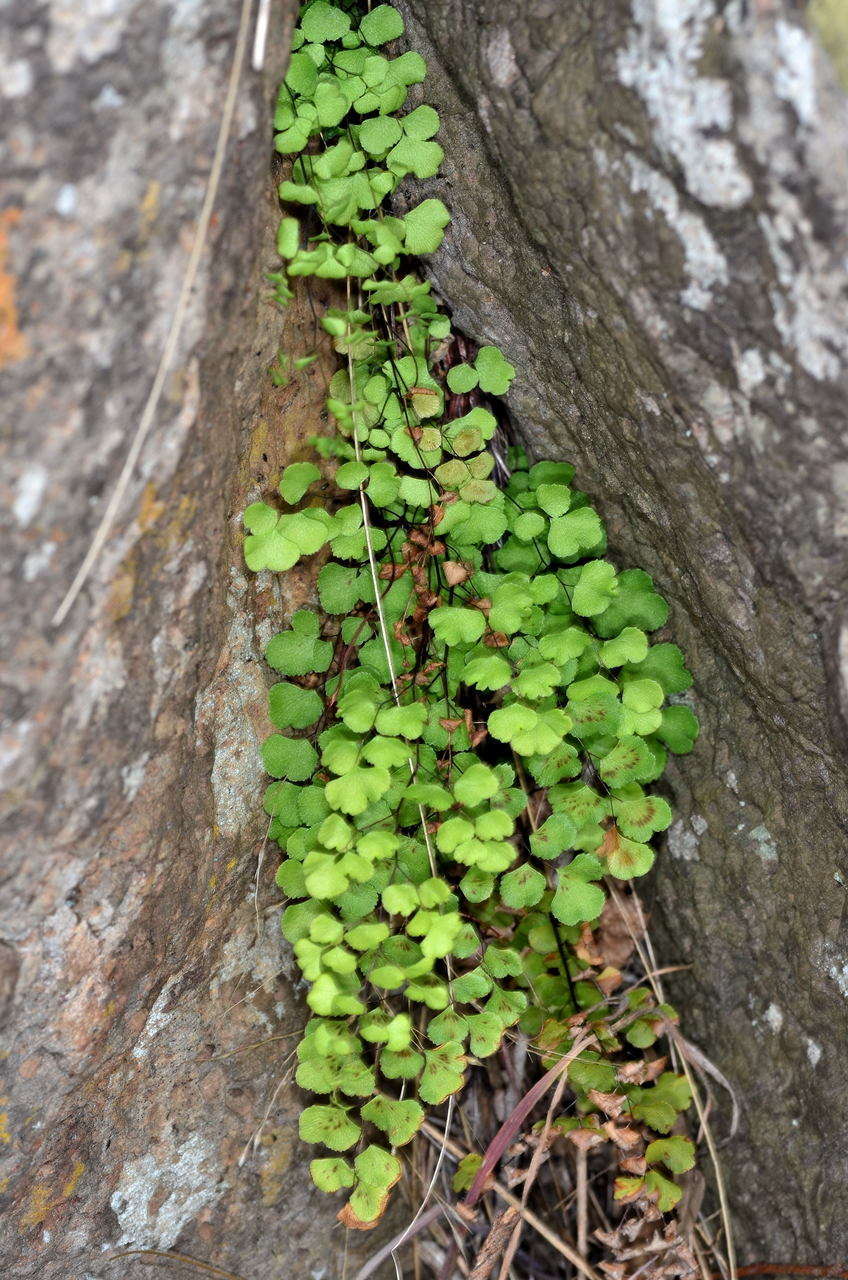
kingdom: Plantae
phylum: Tracheophyta
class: Polypodiopsida
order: Polypodiales
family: Pteridaceae
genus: Adiantum
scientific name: Adiantum aethiopicum
